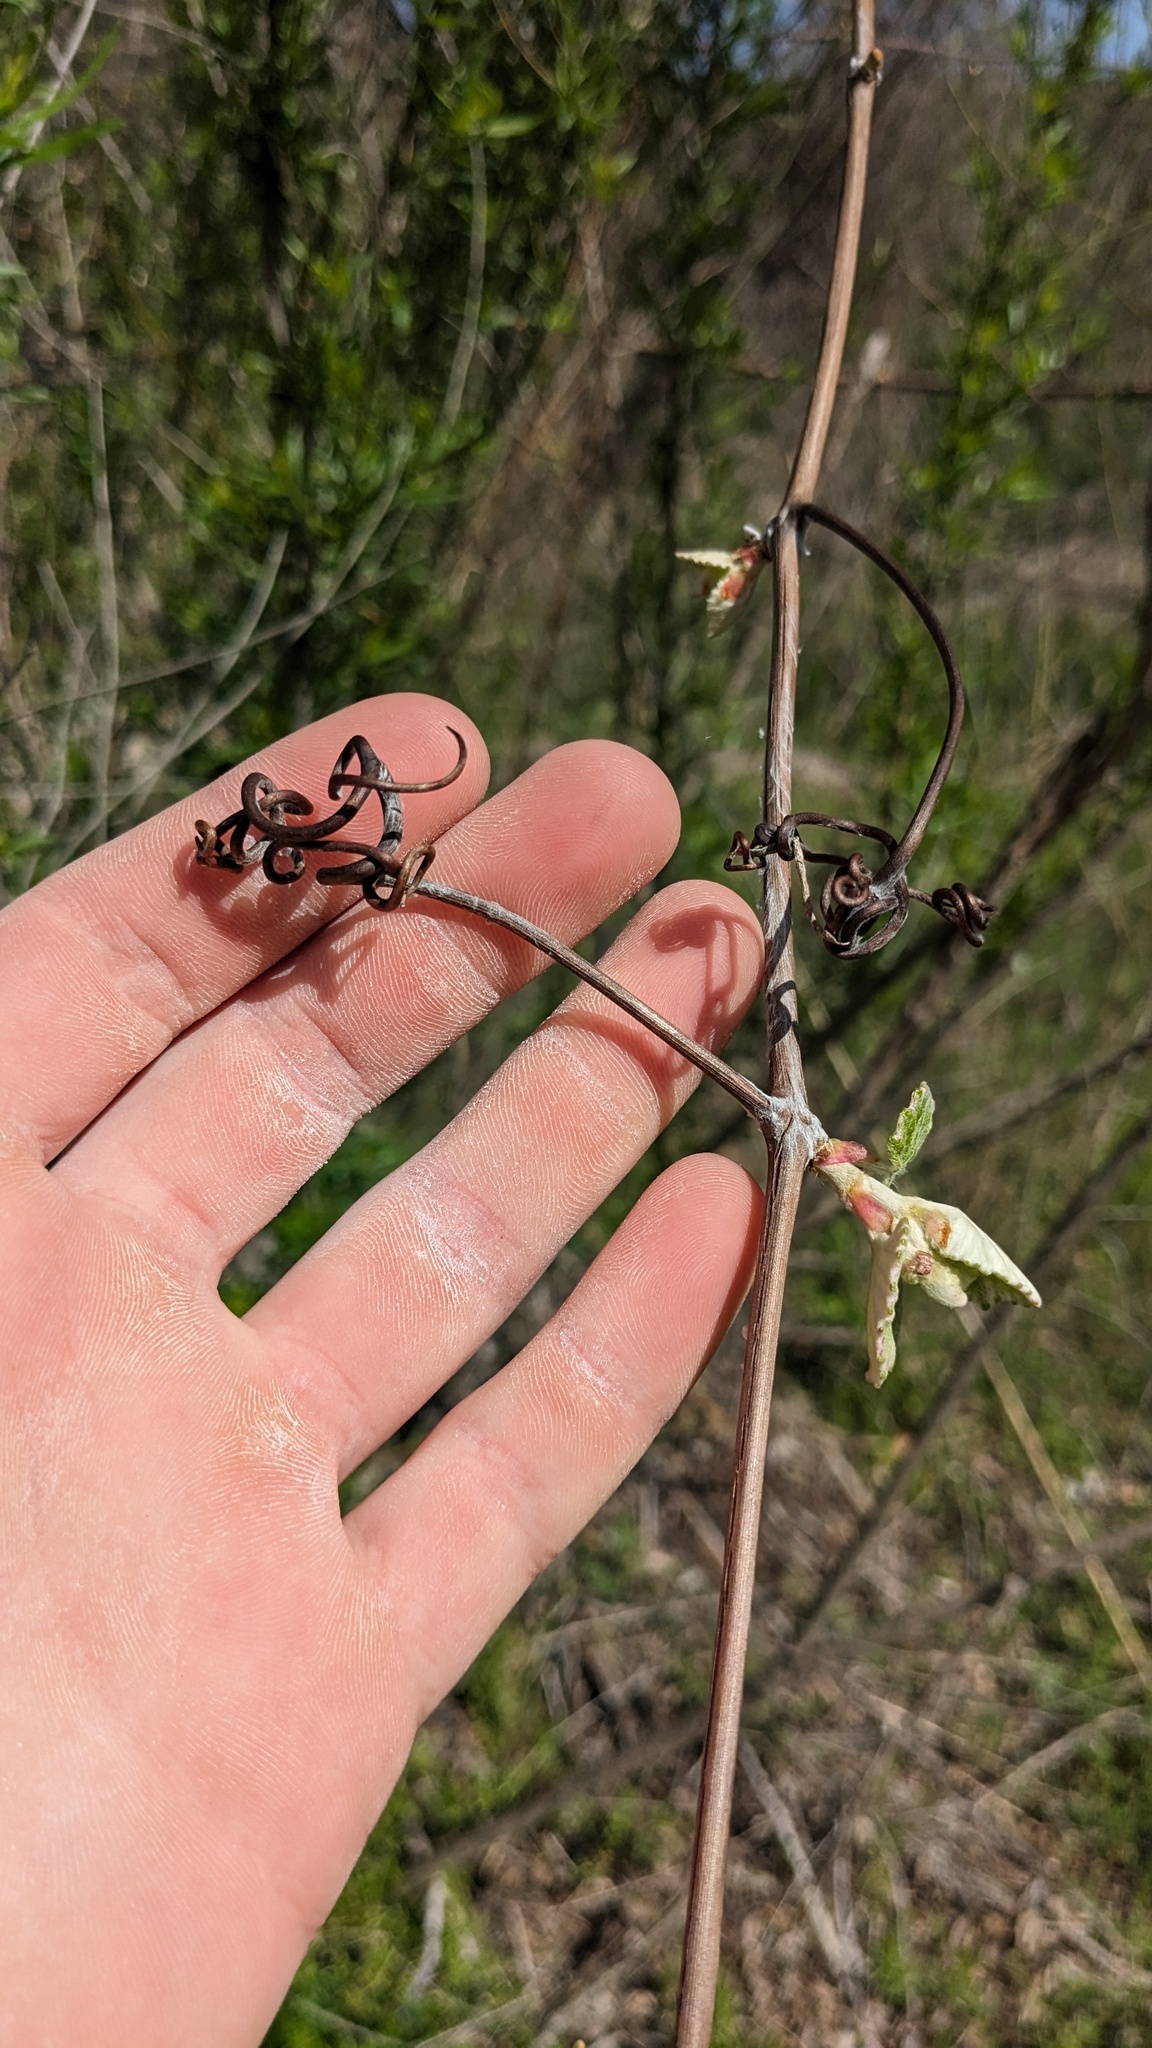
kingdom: Plantae
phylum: Tracheophyta
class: Magnoliopsida
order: Vitales
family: Vitaceae
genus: Vitis
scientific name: Vitis mustangensis
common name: Mustang grape
